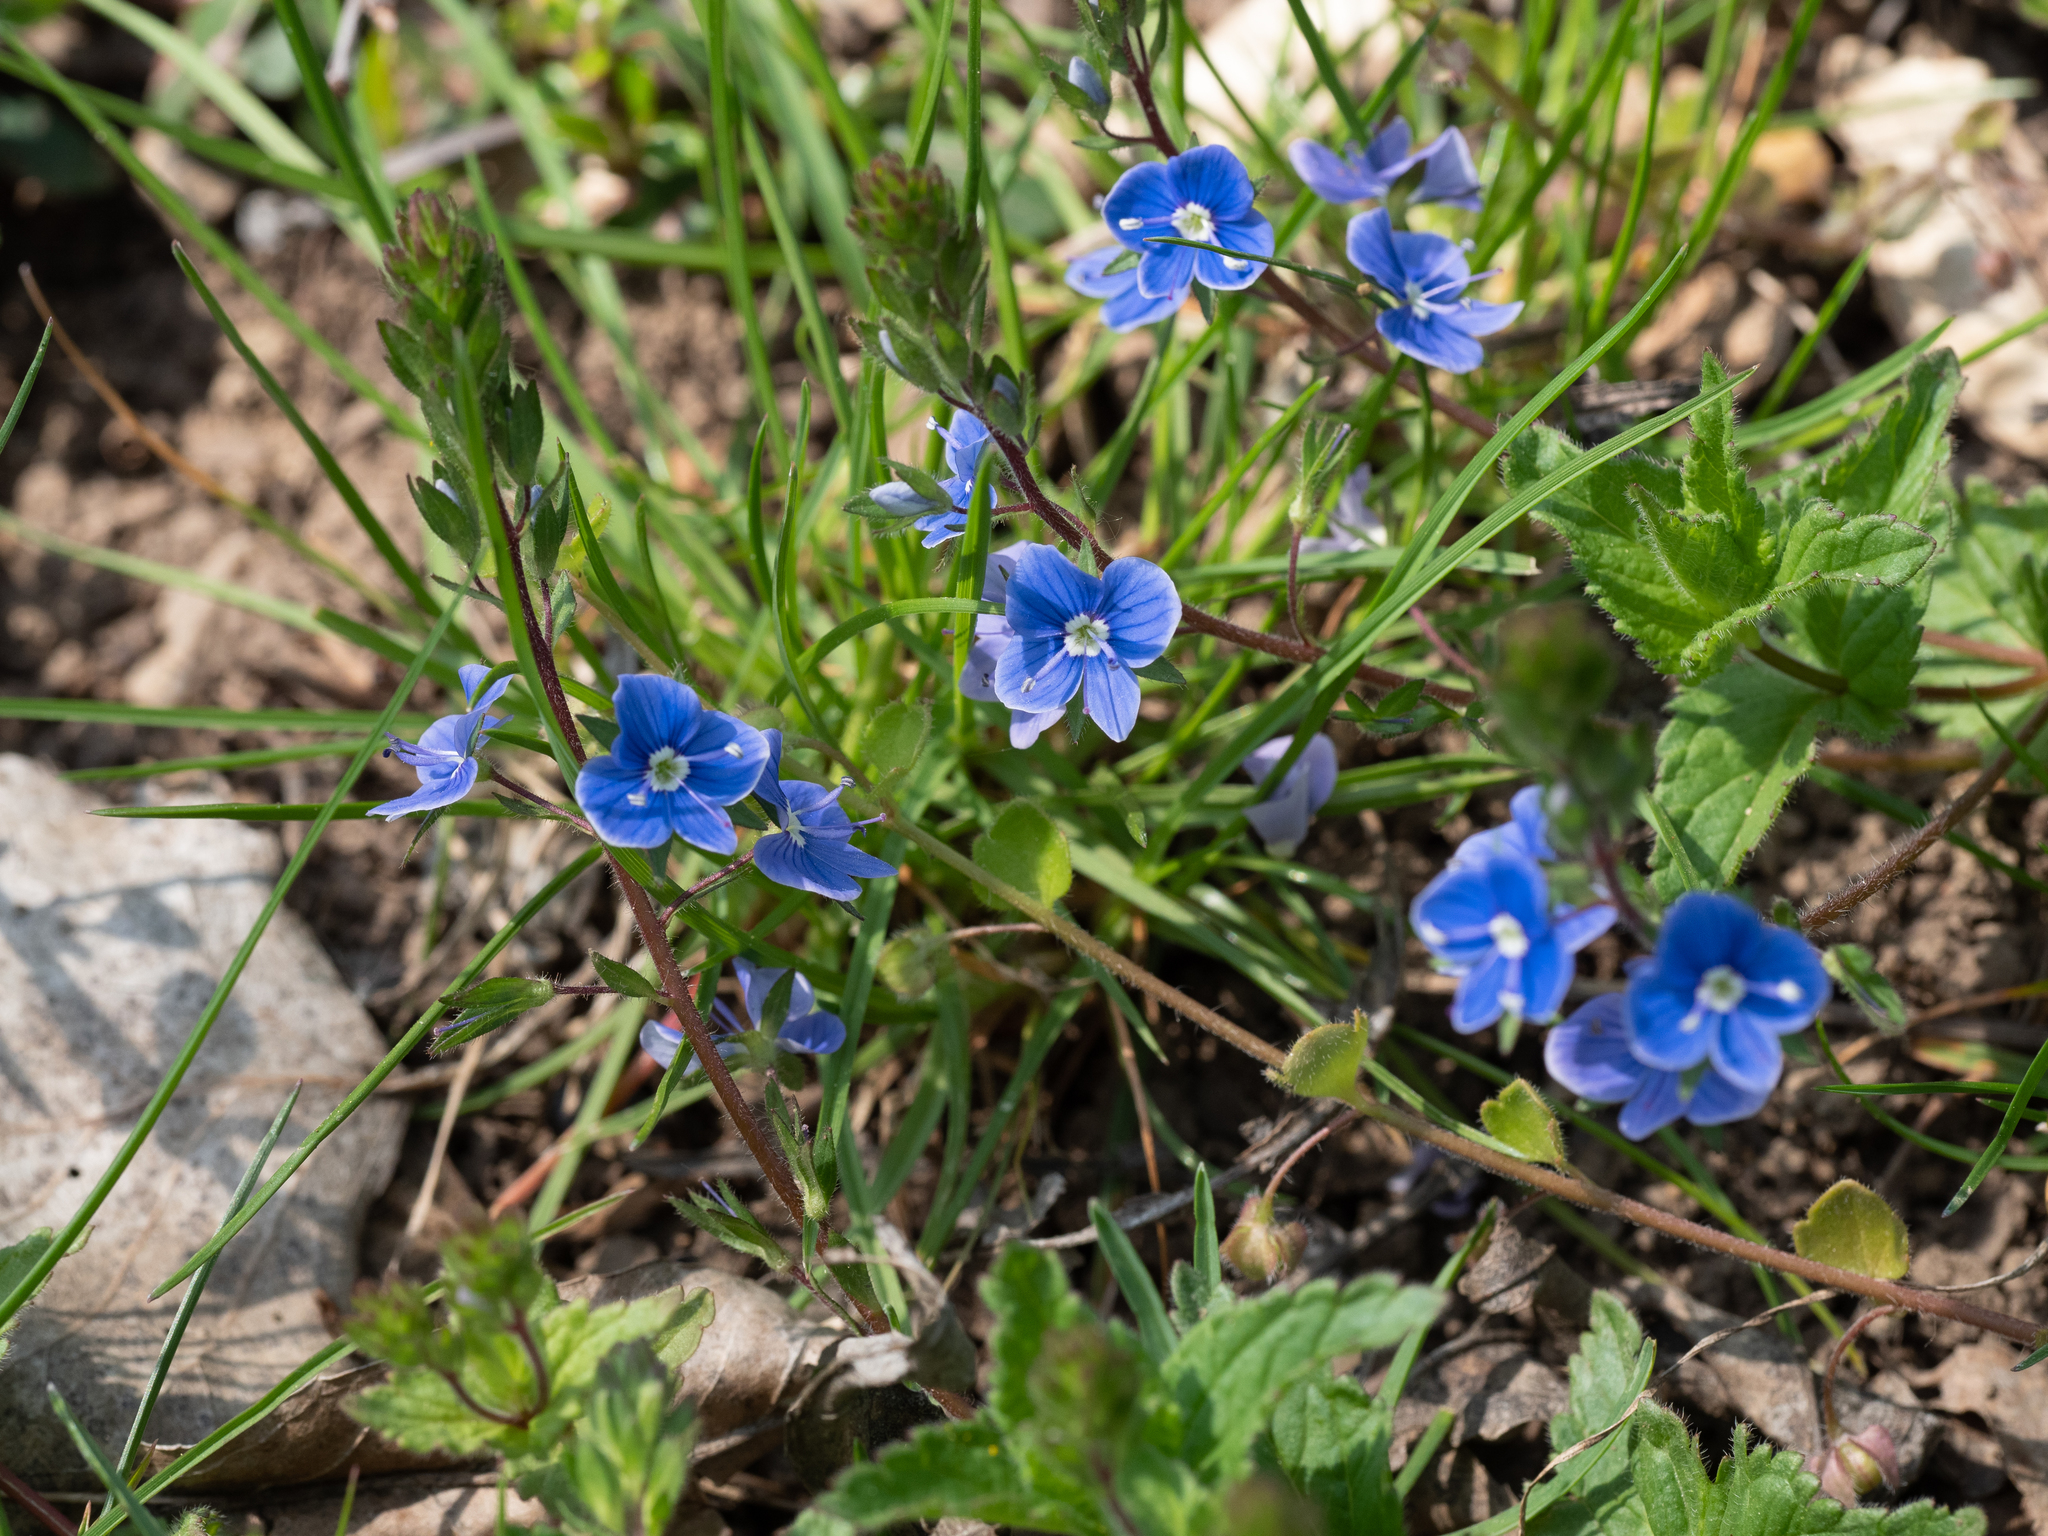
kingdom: Plantae
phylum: Tracheophyta
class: Magnoliopsida
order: Lamiales
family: Plantaginaceae
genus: Veronica
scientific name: Veronica chamaedrys
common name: Germander speedwell
